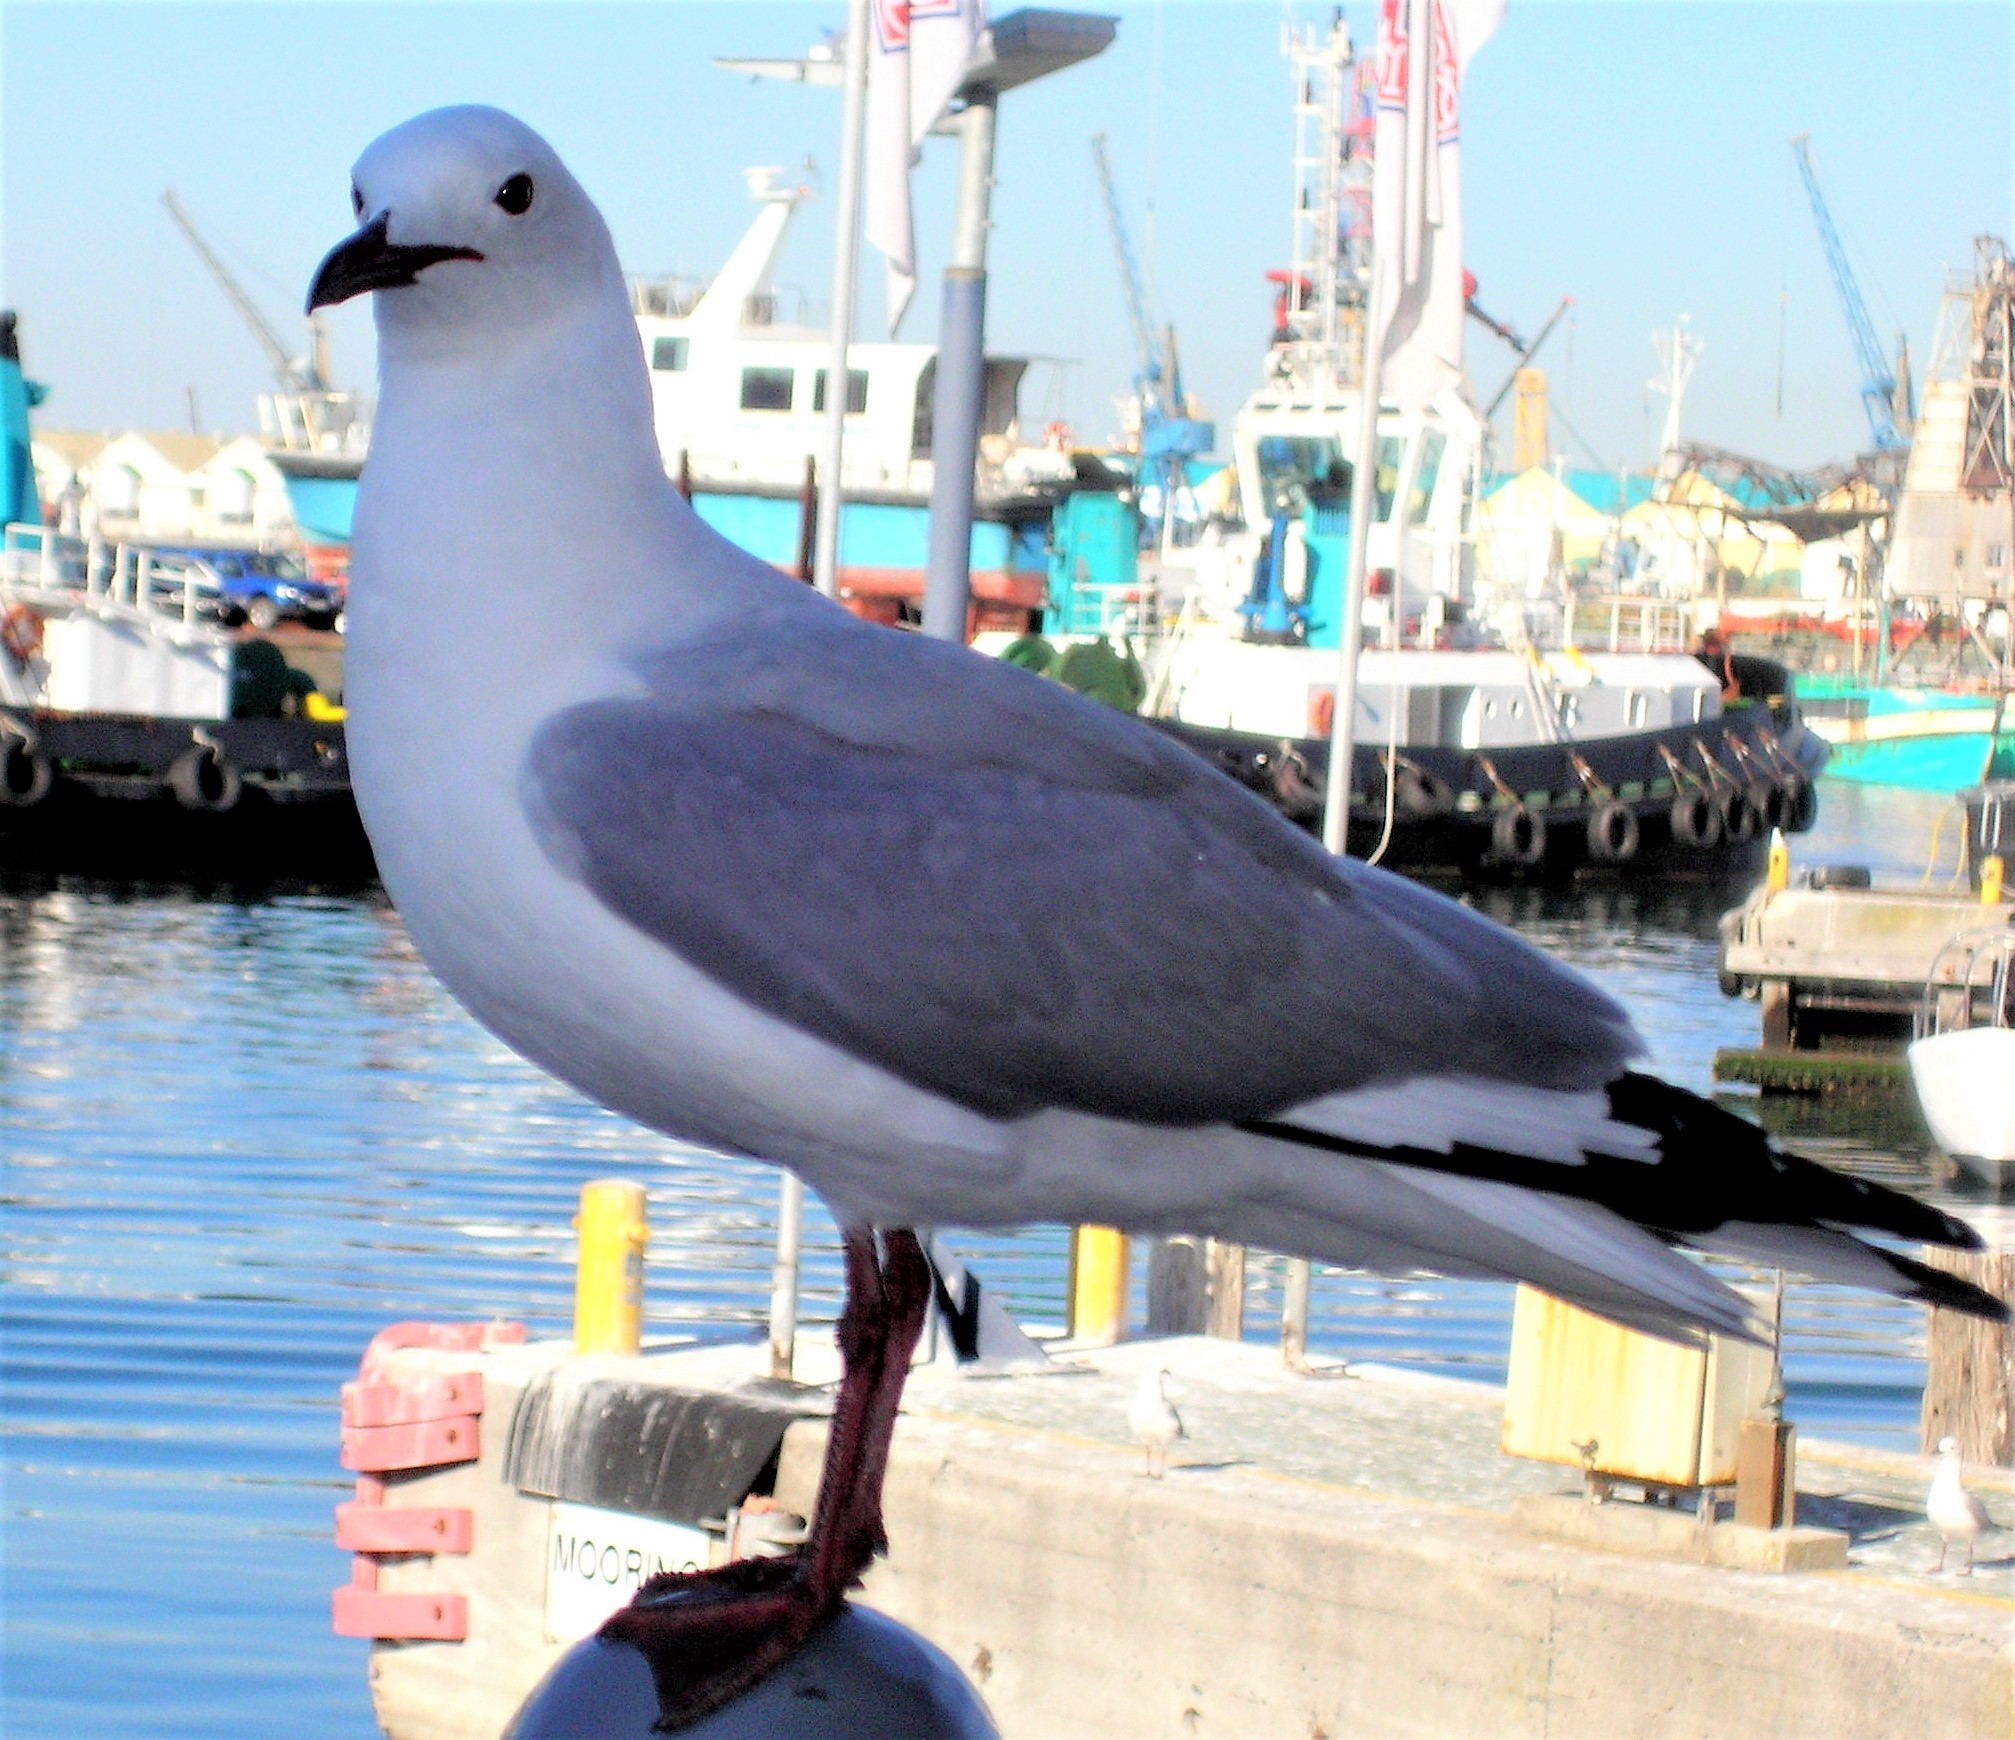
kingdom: Animalia
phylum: Chordata
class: Aves
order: Charadriiformes
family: Laridae
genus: Chroicocephalus
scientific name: Chroicocephalus hartlaubii
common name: Hartlaub's gull
